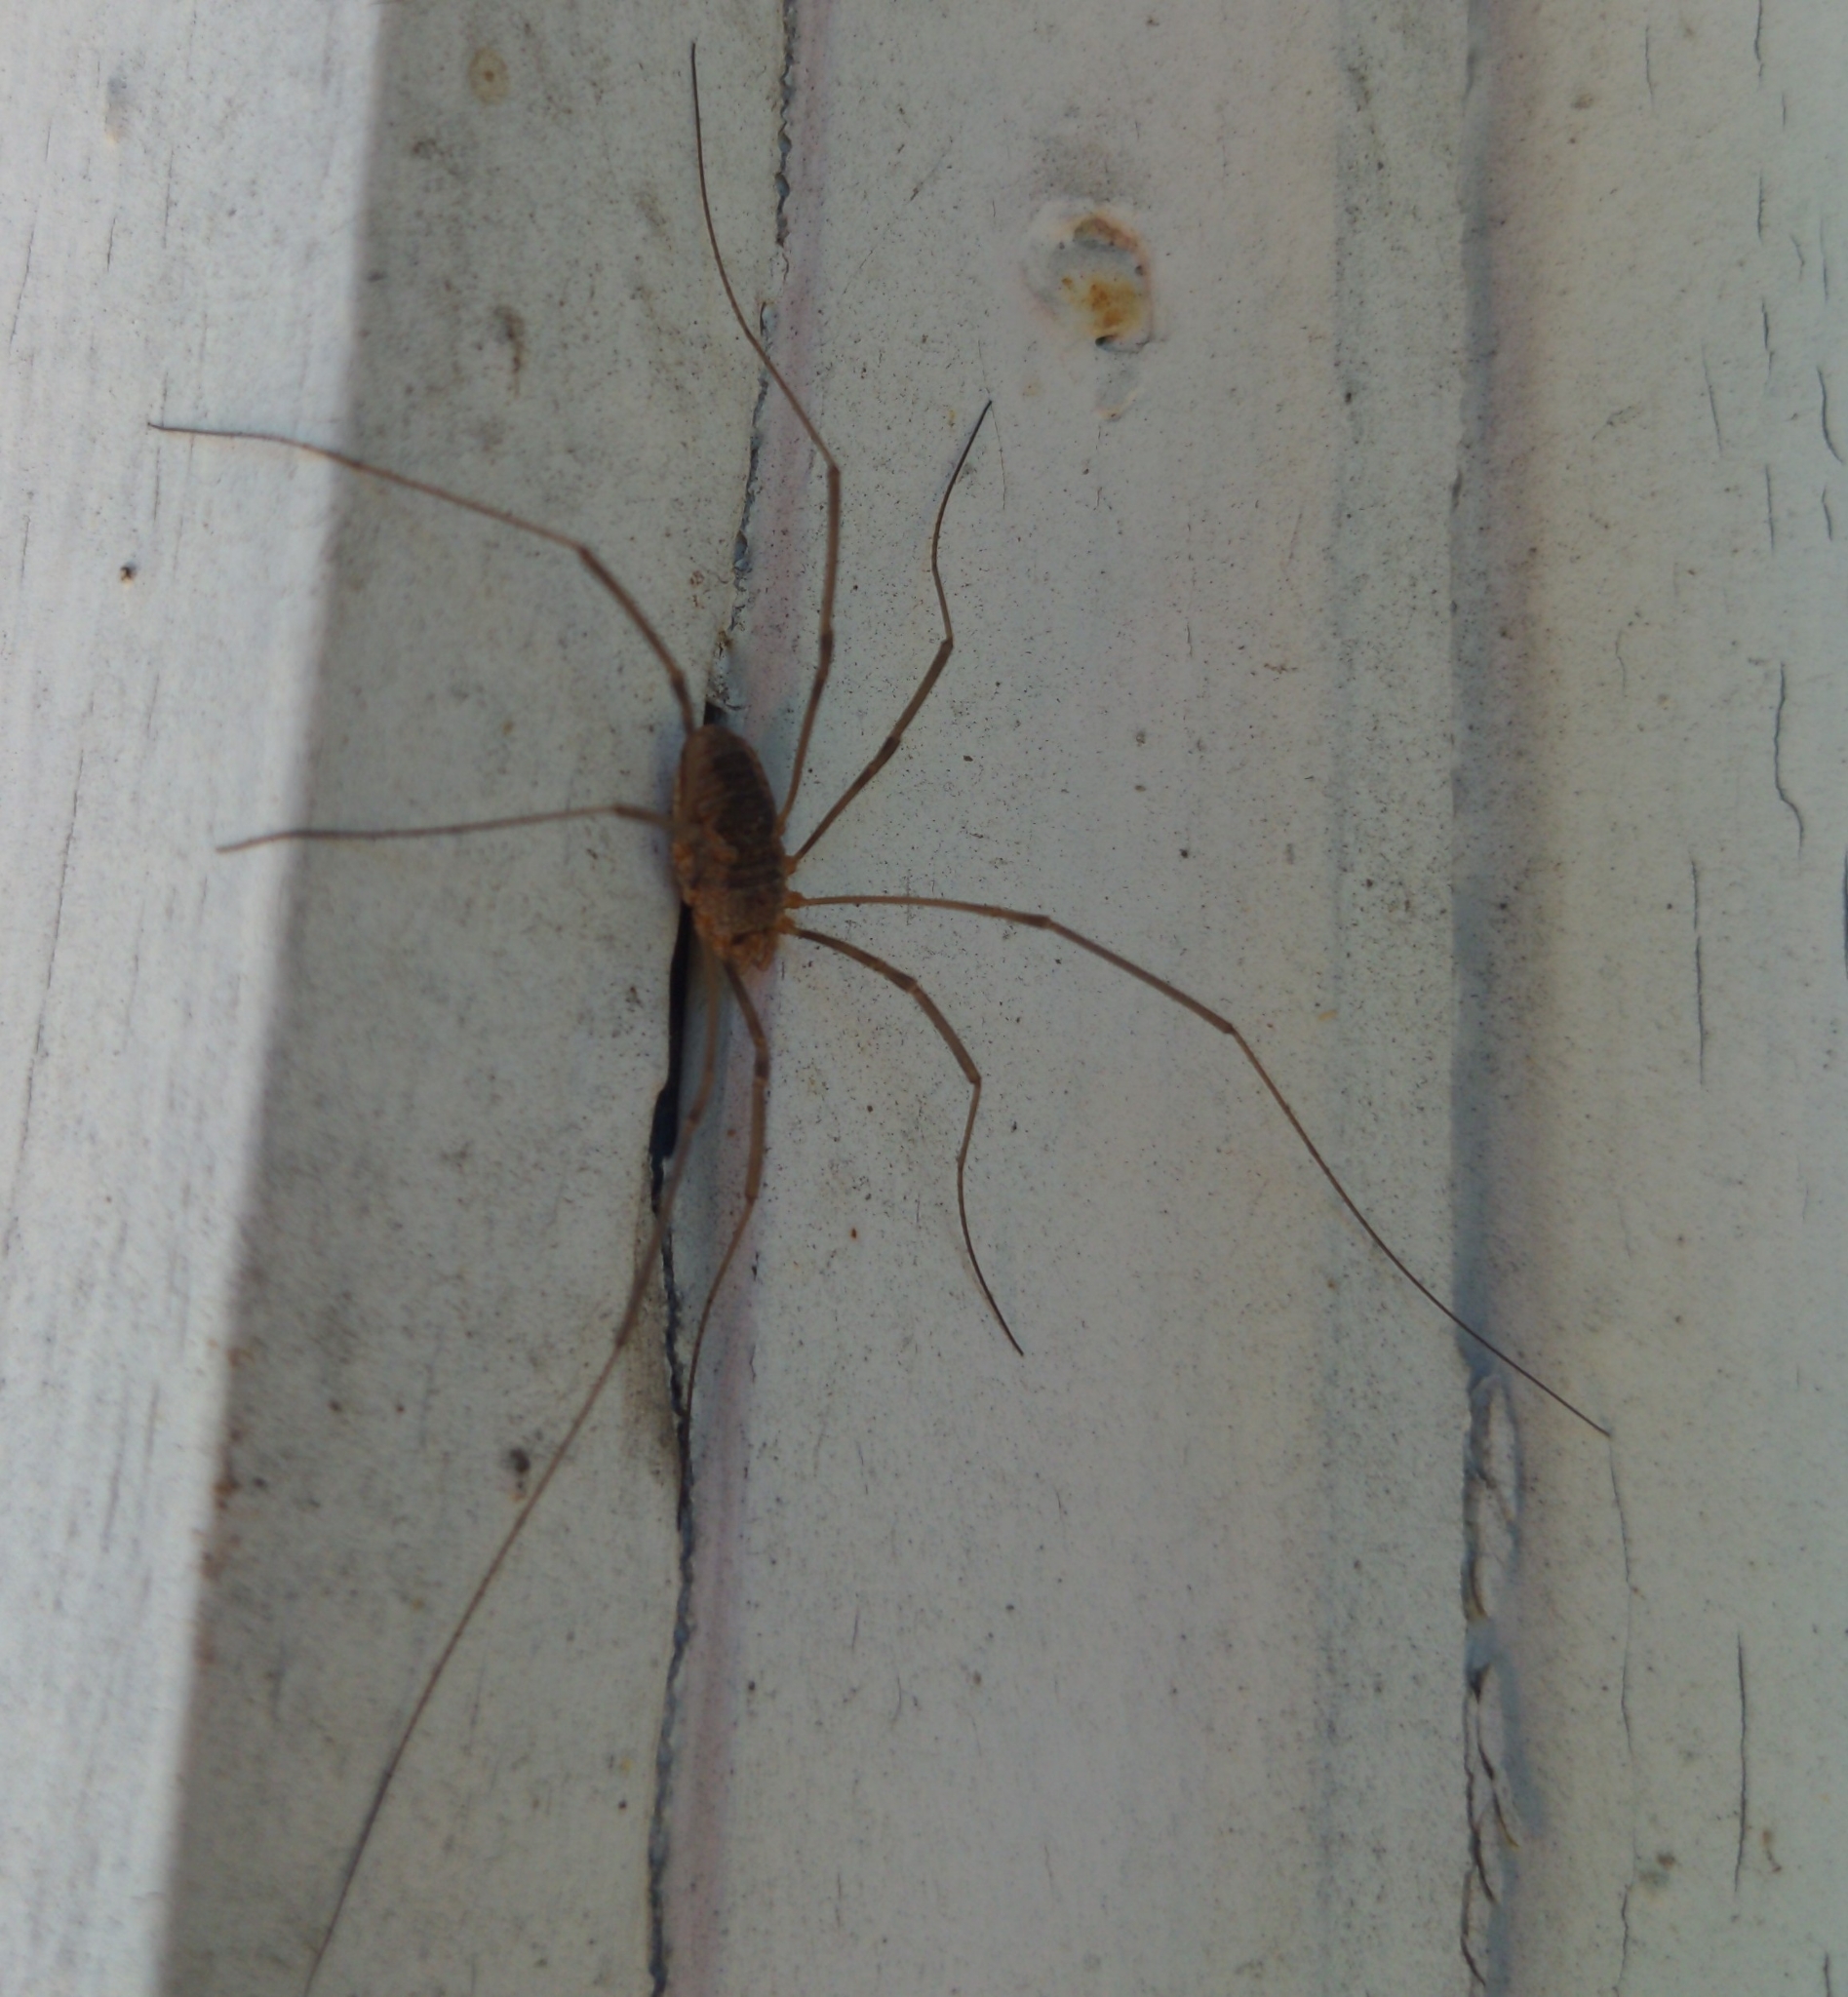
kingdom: Animalia
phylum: Arthropoda
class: Arachnida
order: Opiliones
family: Phalangiidae
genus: Phalangium
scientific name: Phalangium opilio
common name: Daddy longleg
